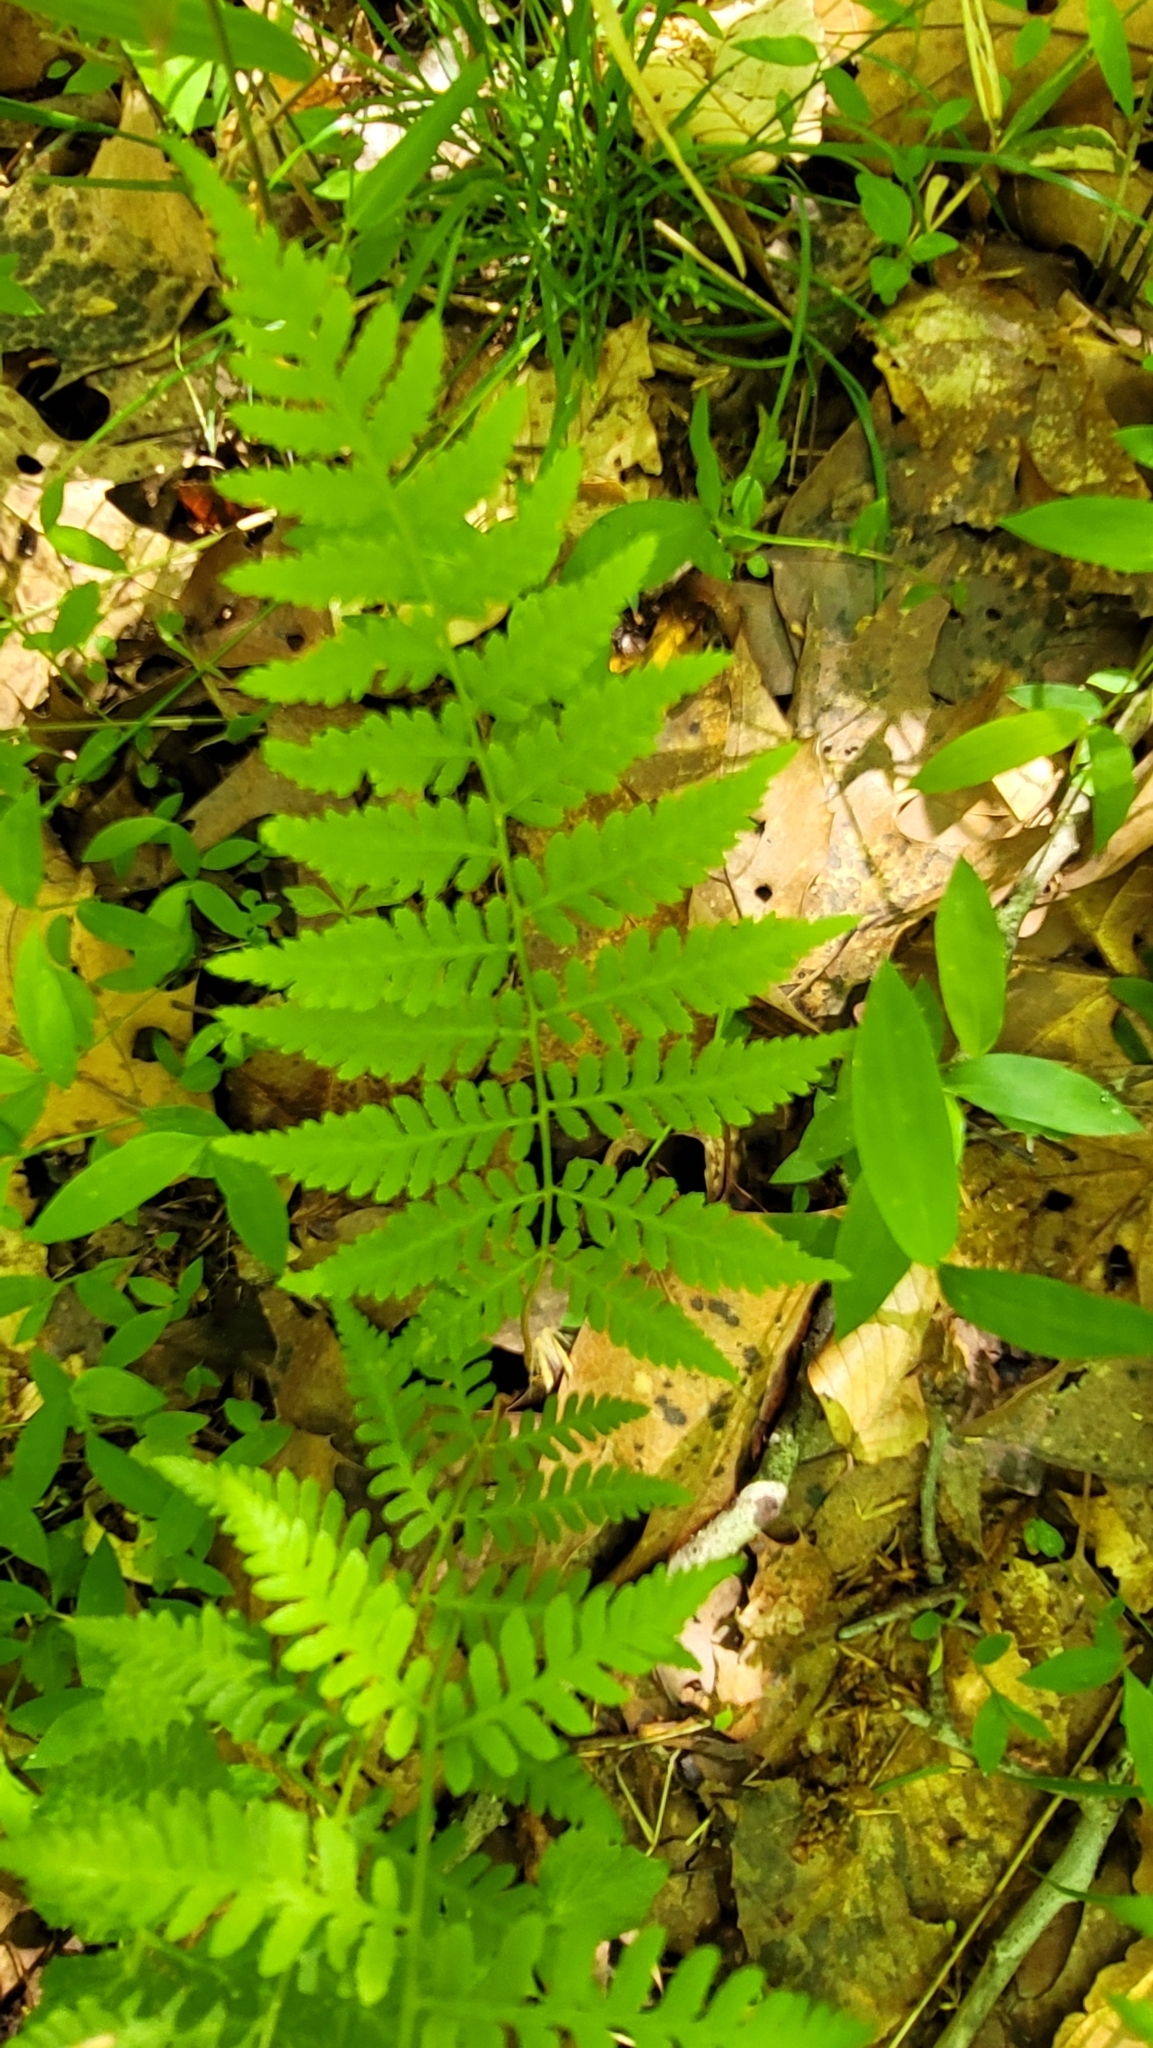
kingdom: Plantae
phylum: Tracheophyta
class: Polypodiopsida
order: Polypodiales
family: Athyriaceae
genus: Athyrium
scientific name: Athyrium asplenioides
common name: Southern lady fern
